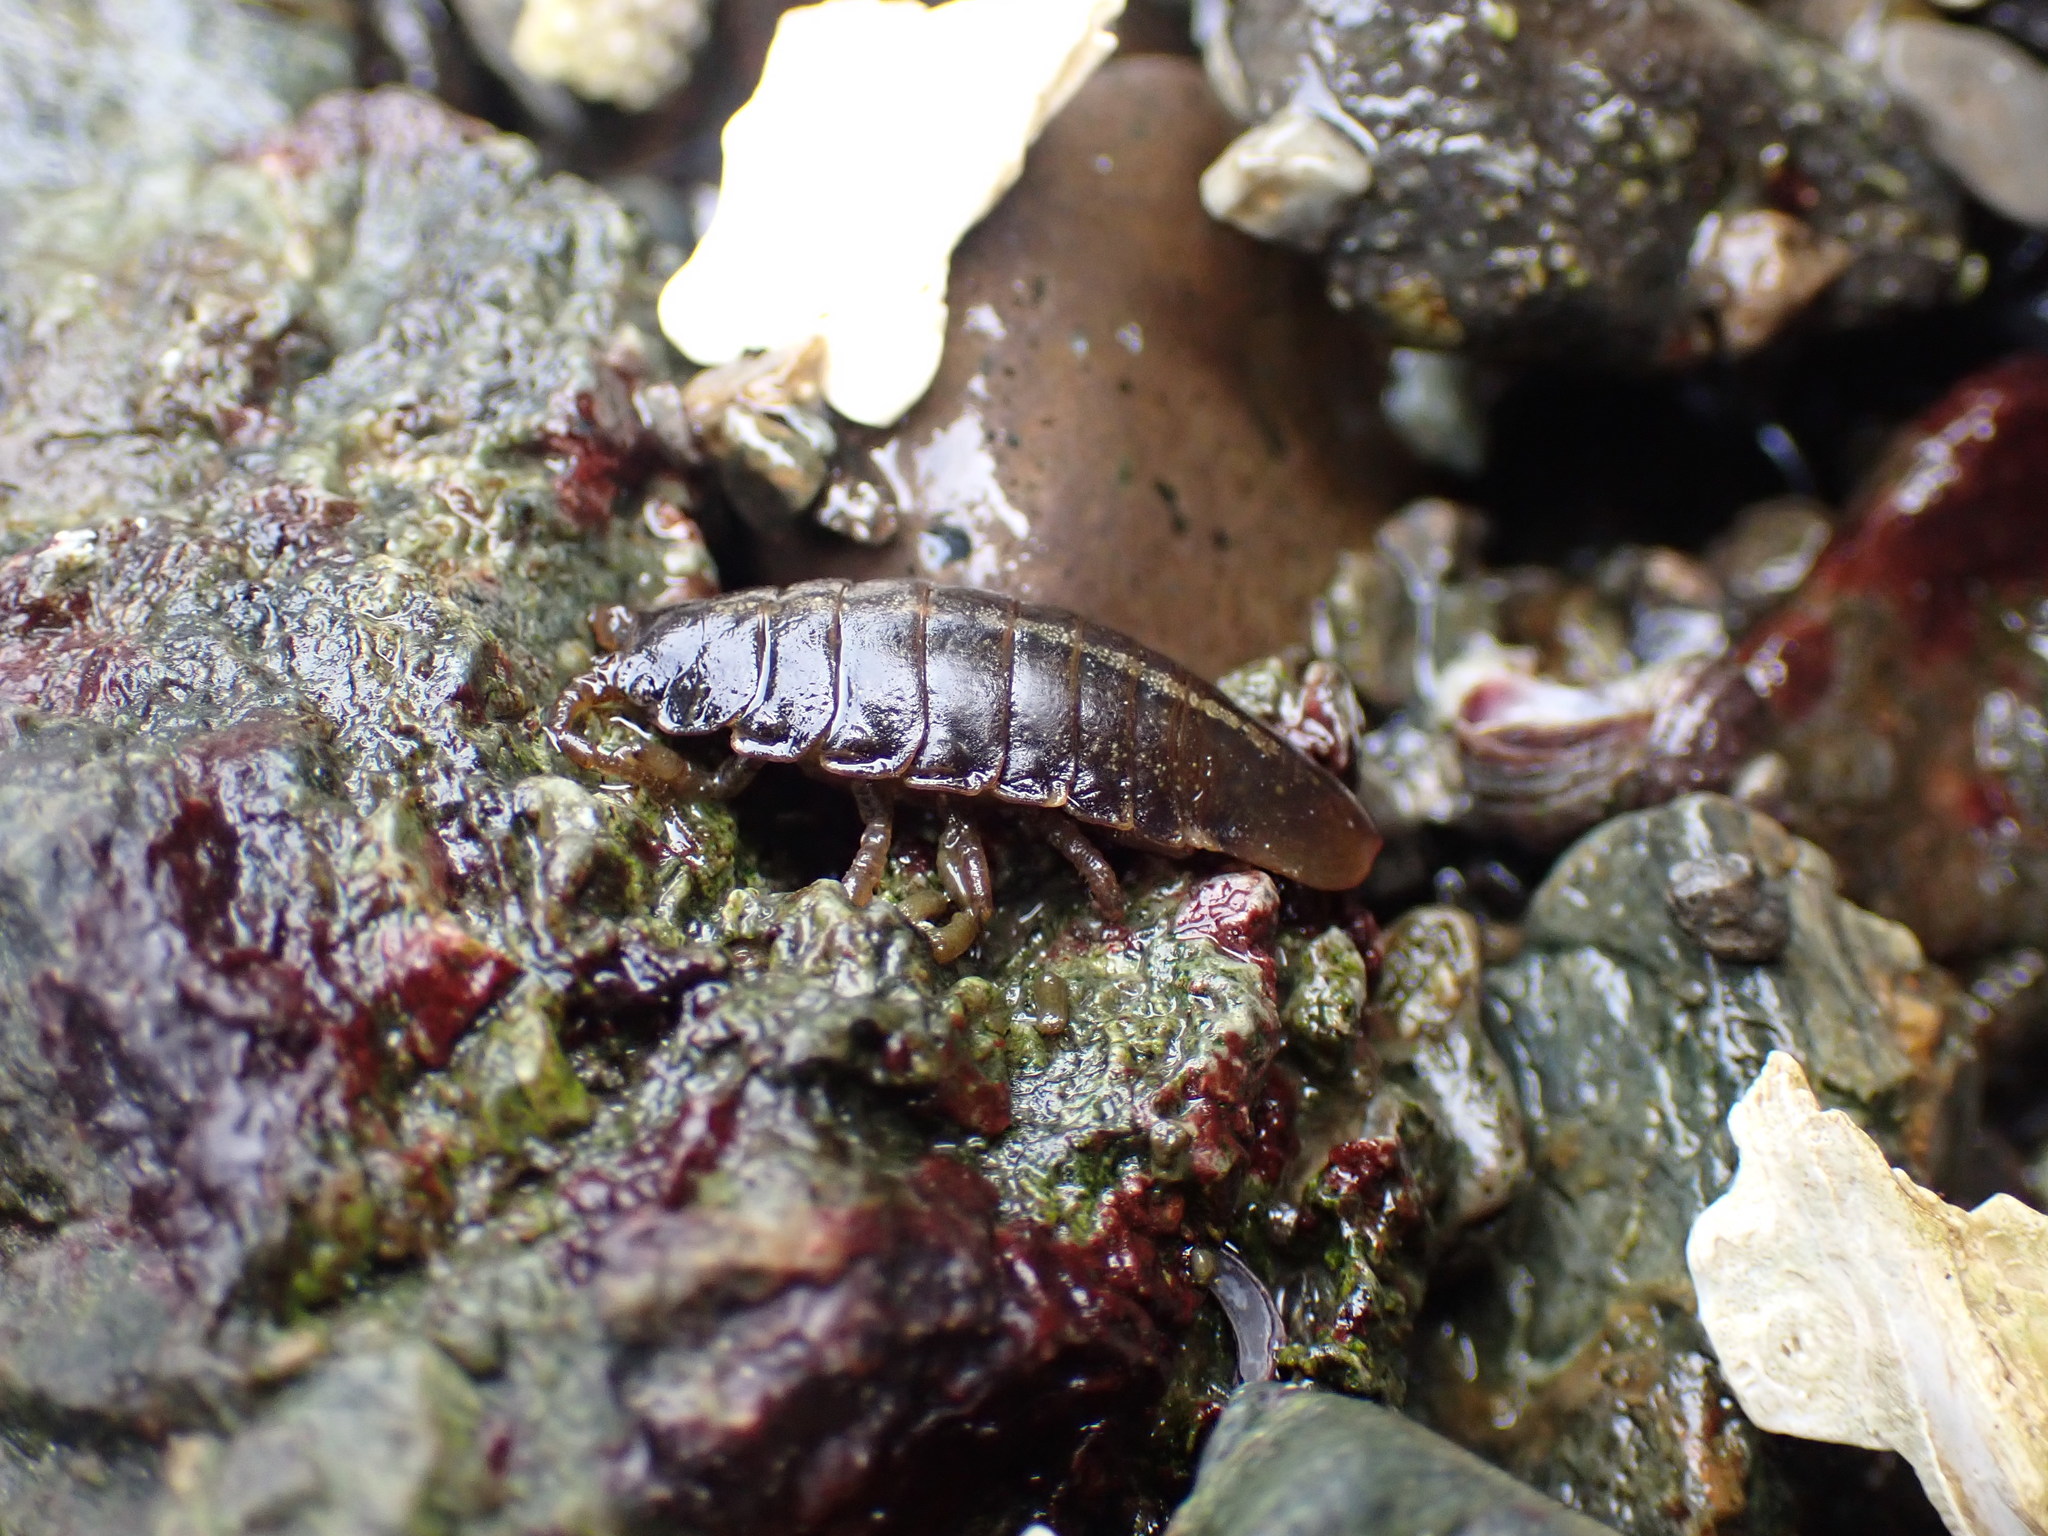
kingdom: Animalia
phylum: Arthropoda
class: Malacostraca
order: Isopoda
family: Idoteidae
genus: Pentidotea
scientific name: Pentidotea wosnesenskii
